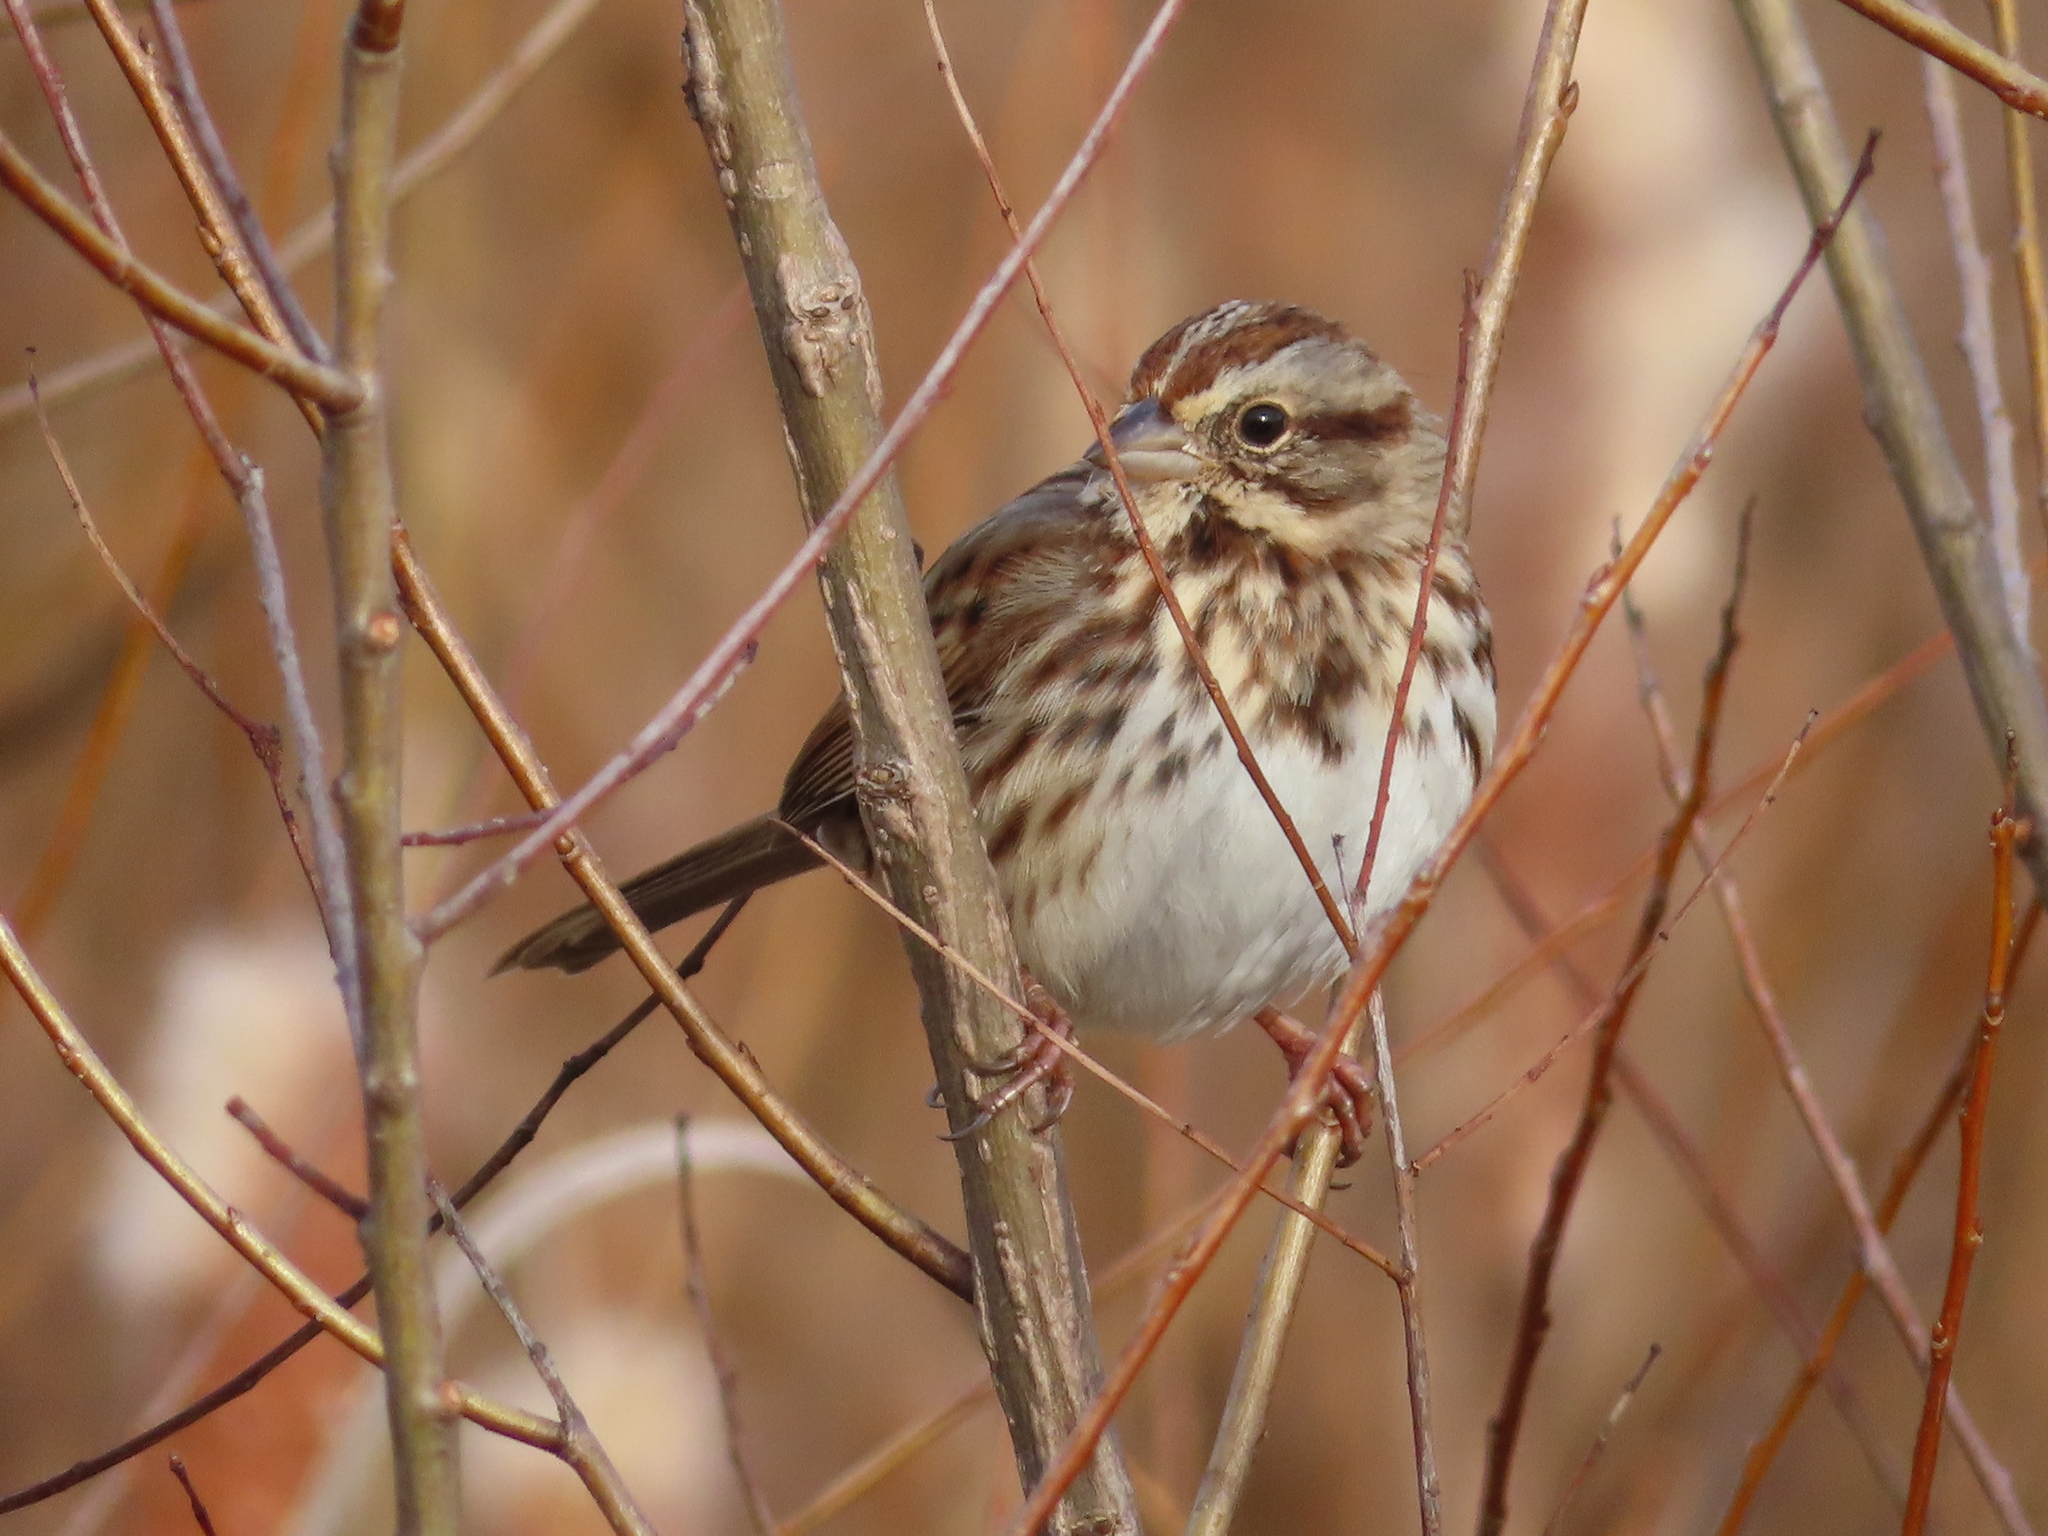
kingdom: Animalia
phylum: Chordata
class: Aves
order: Passeriformes
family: Passerellidae
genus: Melospiza
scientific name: Melospiza melodia
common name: Song sparrow
